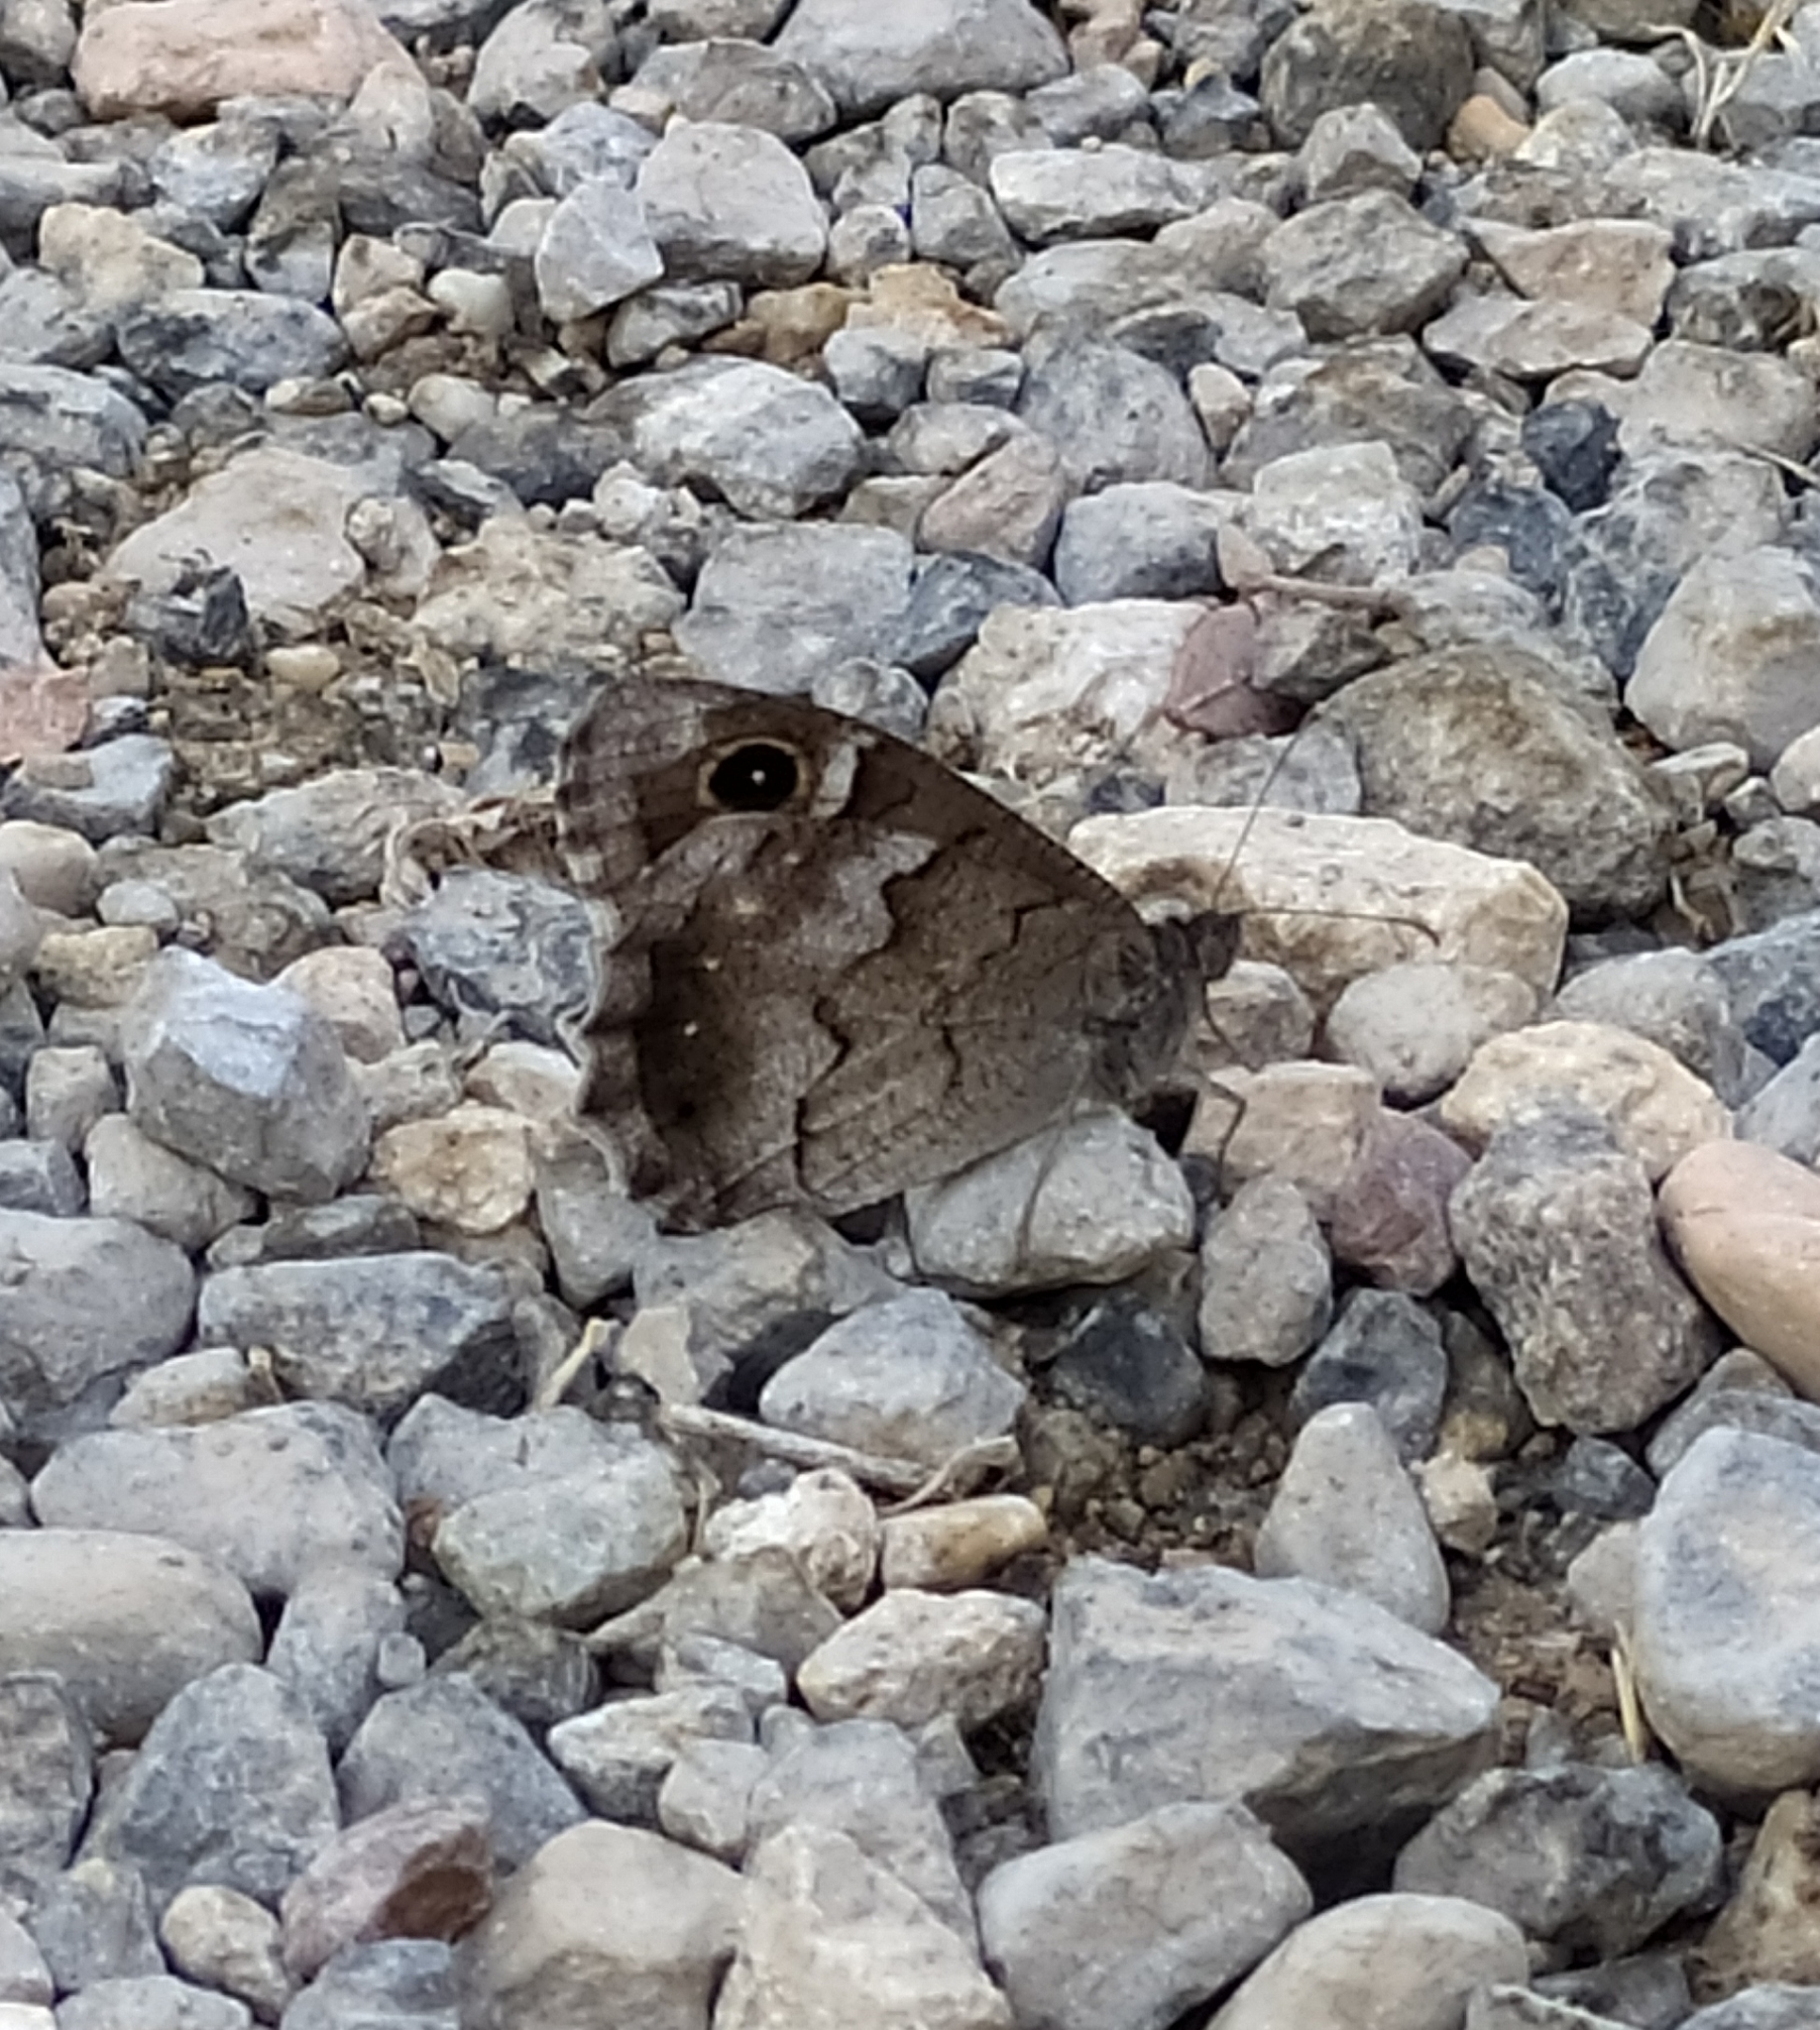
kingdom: Animalia
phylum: Arthropoda
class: Insecta
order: Lepidoptera
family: Nymphalidae
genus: Hipparchia
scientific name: Hipparchia statilinus
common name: Tree grayling
